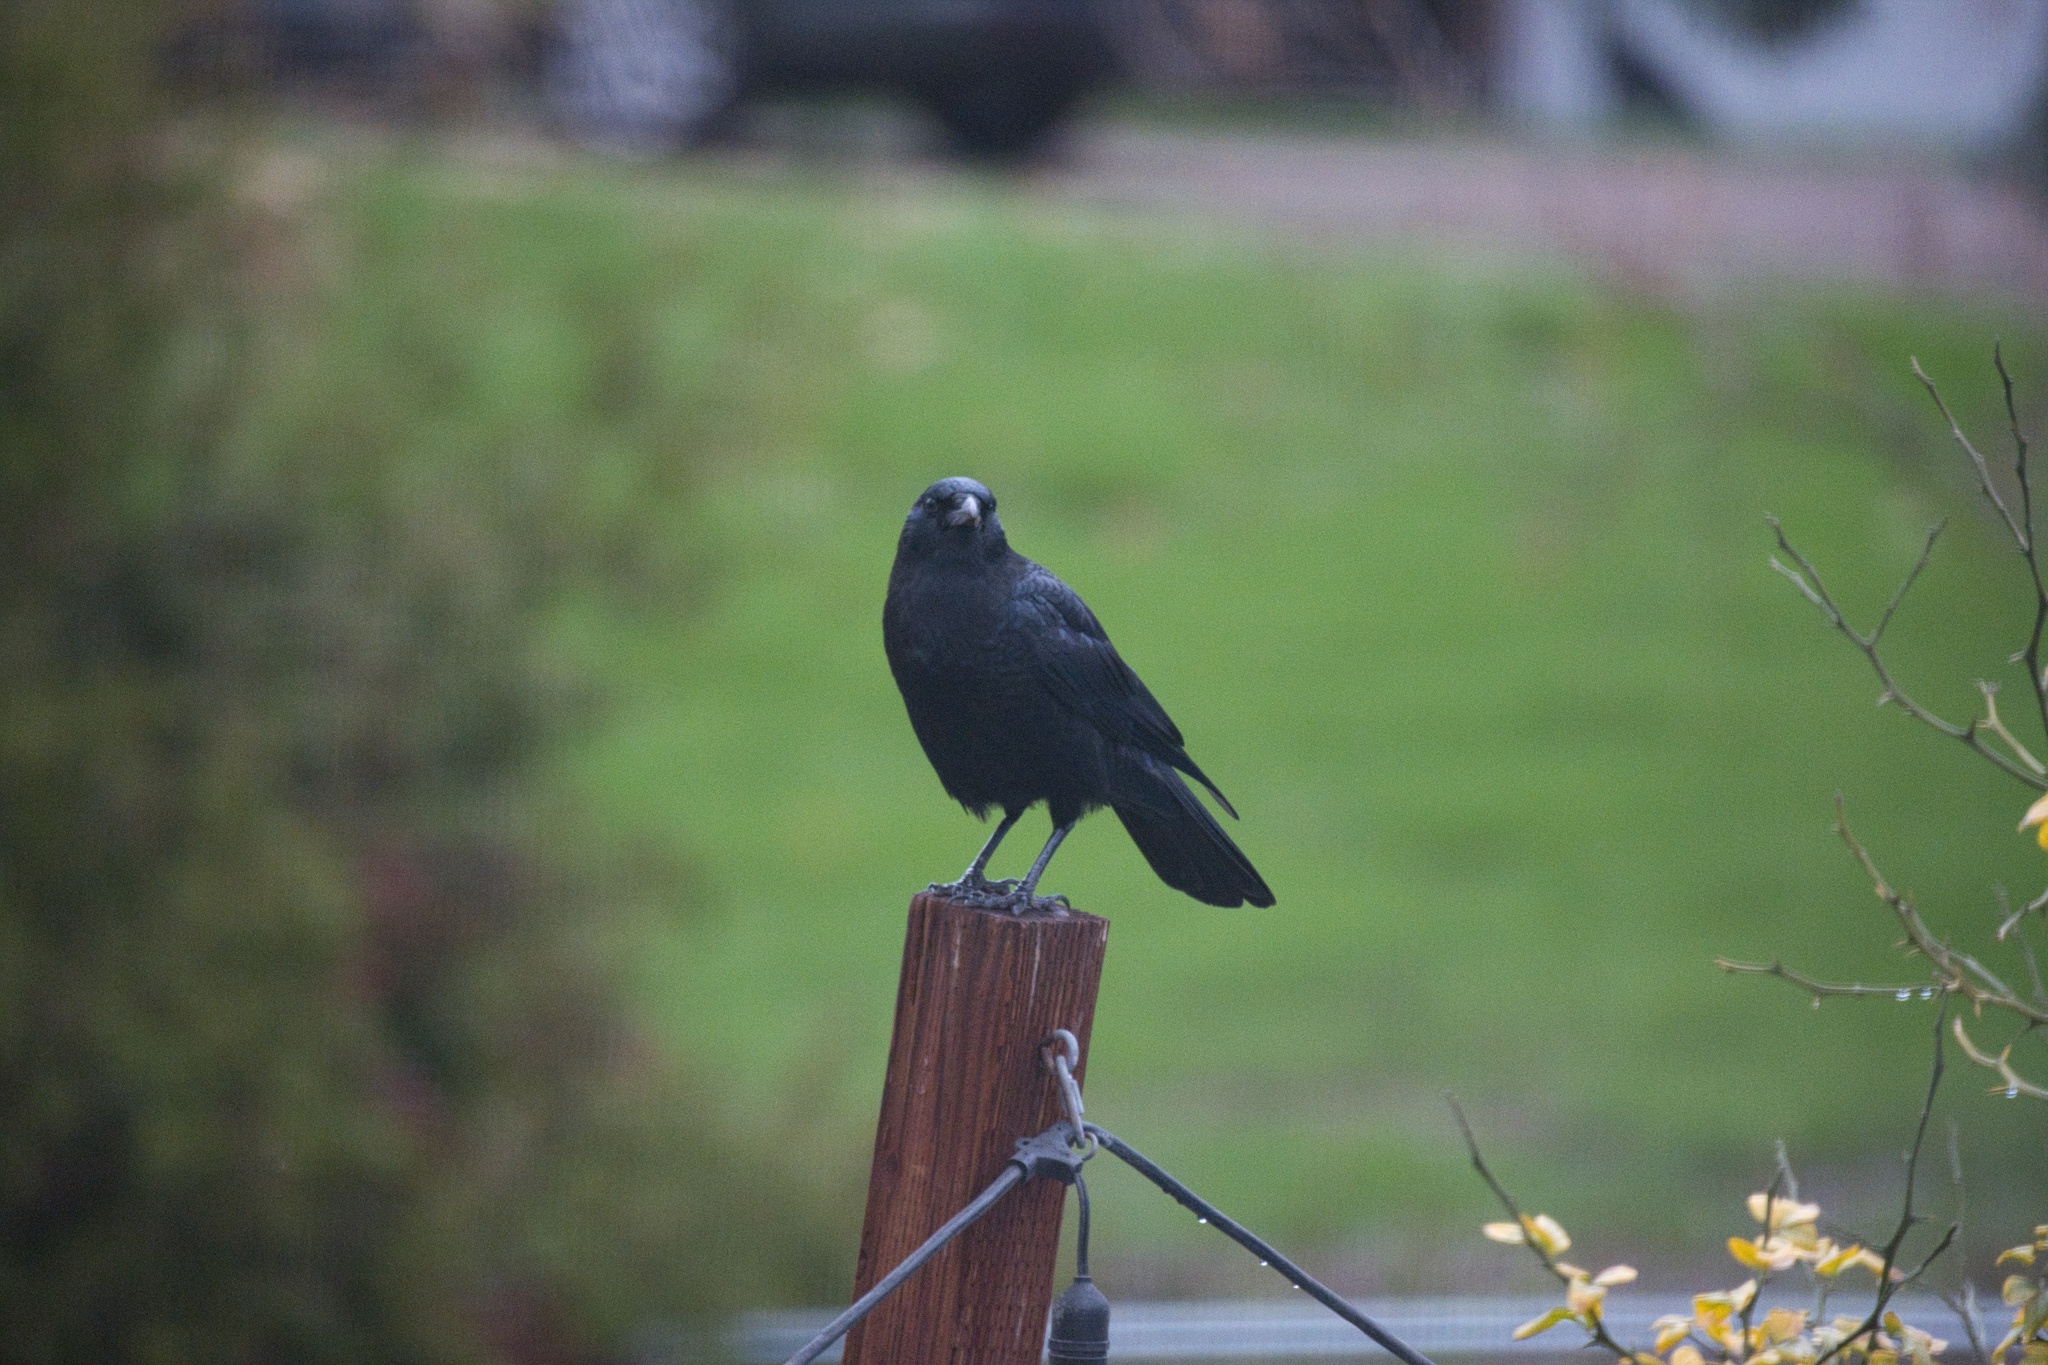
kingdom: Animalia
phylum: Chordata
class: Aves
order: Passeriformes
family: Corvidae
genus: Corvus
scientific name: Corvus brachyrhynchos
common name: American crow
